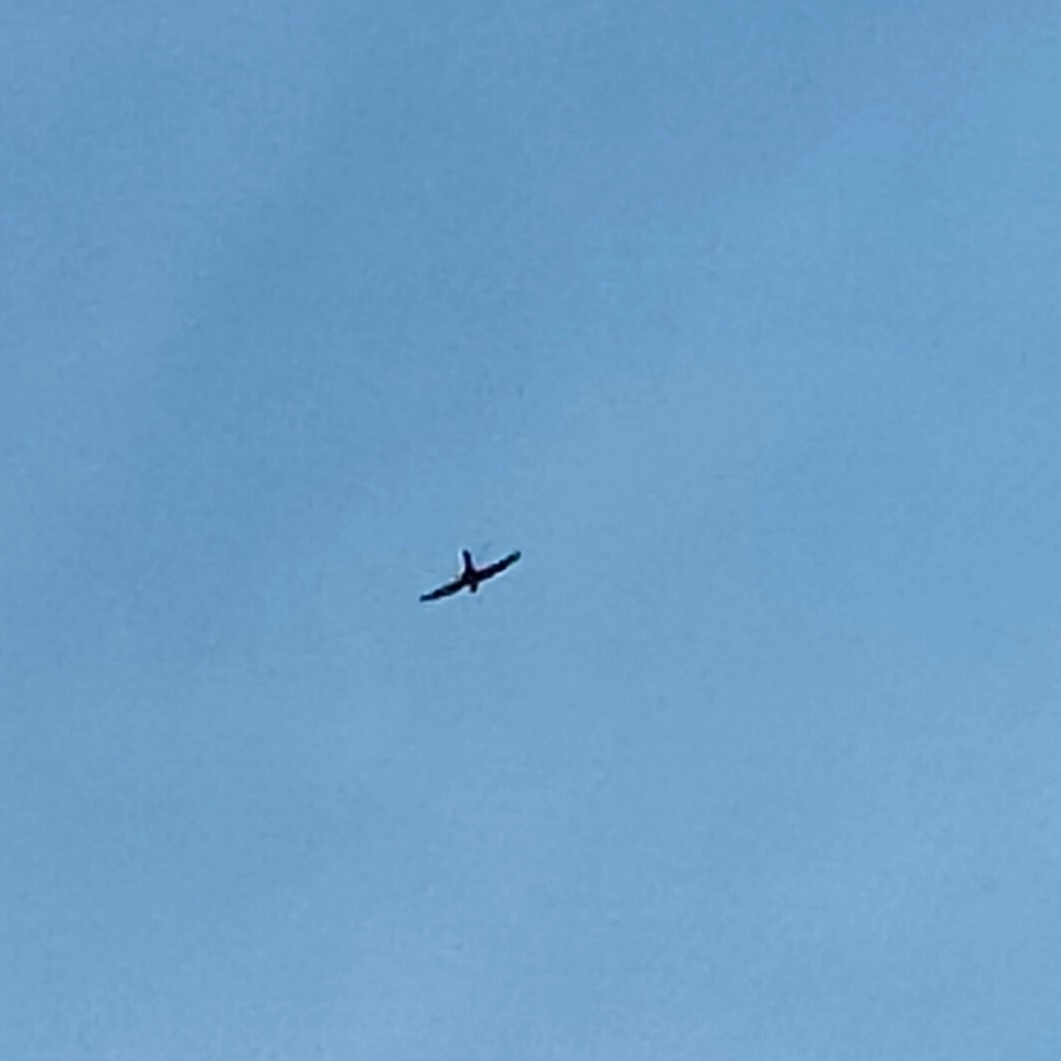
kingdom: Animalia
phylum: Chordata
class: Aves
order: Apodiformes
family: Apodidae
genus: Apus
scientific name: Apus apus
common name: Common swift
